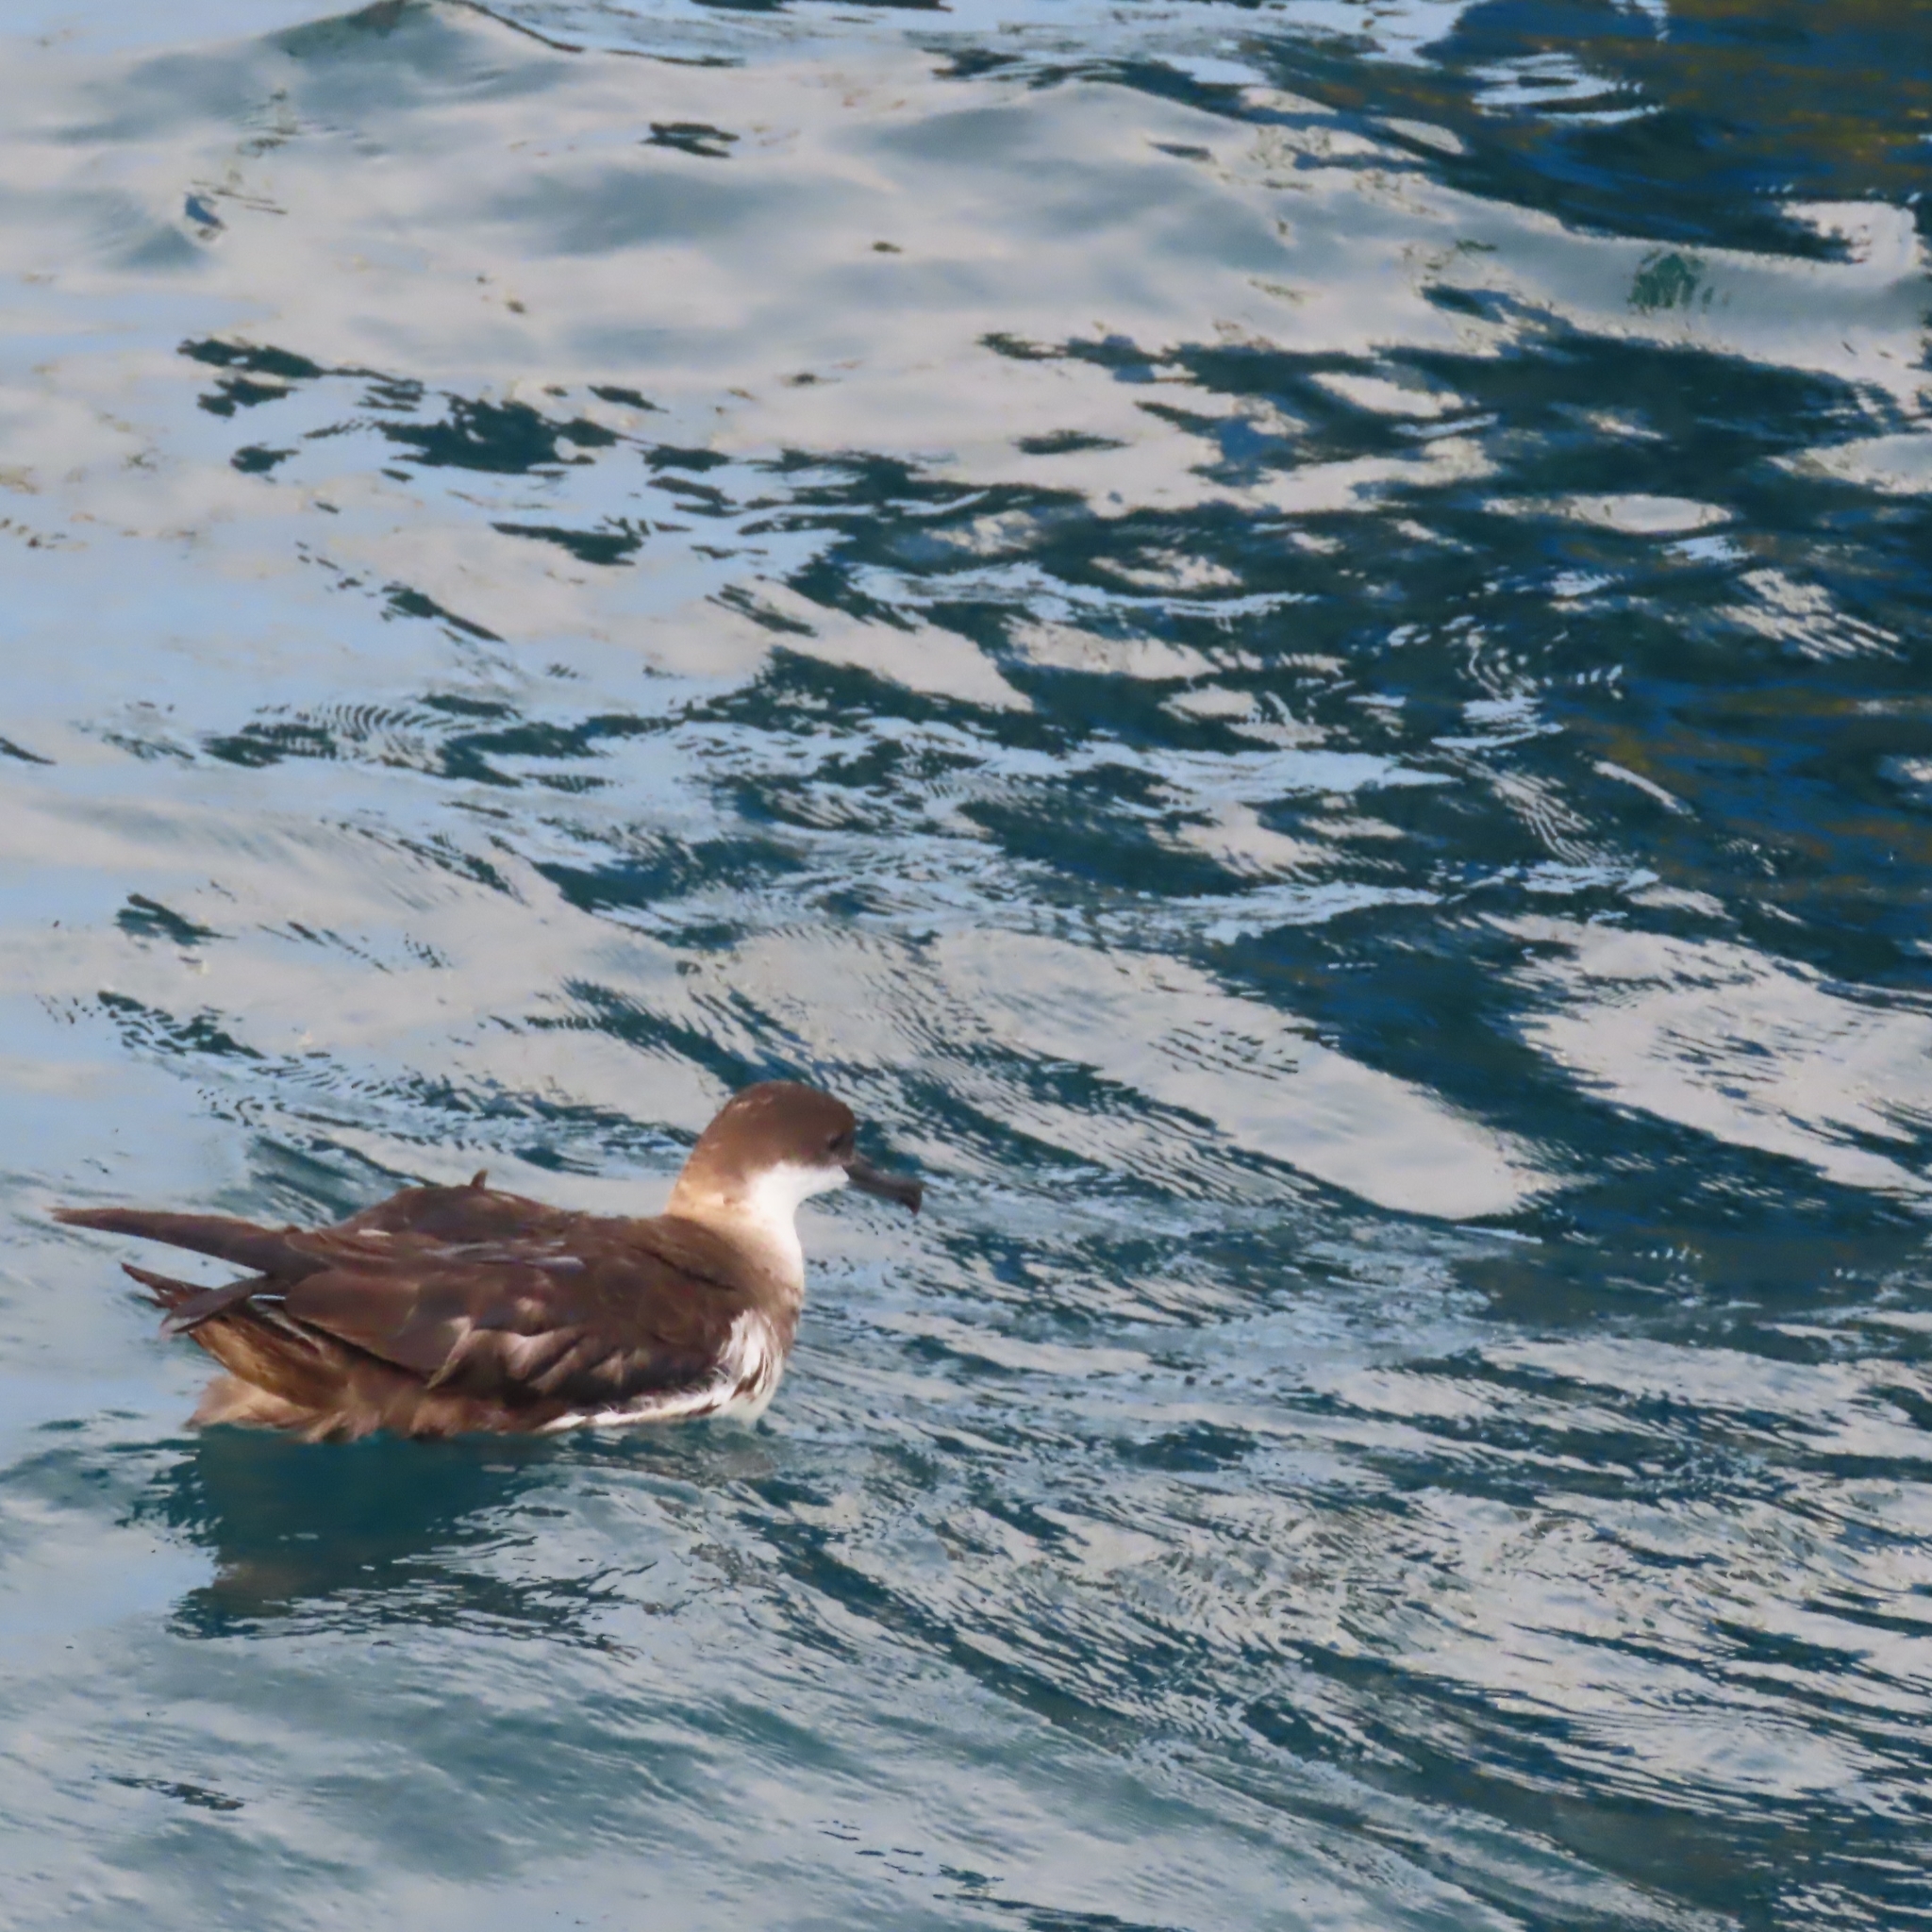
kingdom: Animalia
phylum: Chordata
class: Aves
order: Procellariiformes
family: Procellariidae
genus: Puffinus
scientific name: Puffinus gravis
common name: Great shearwater
